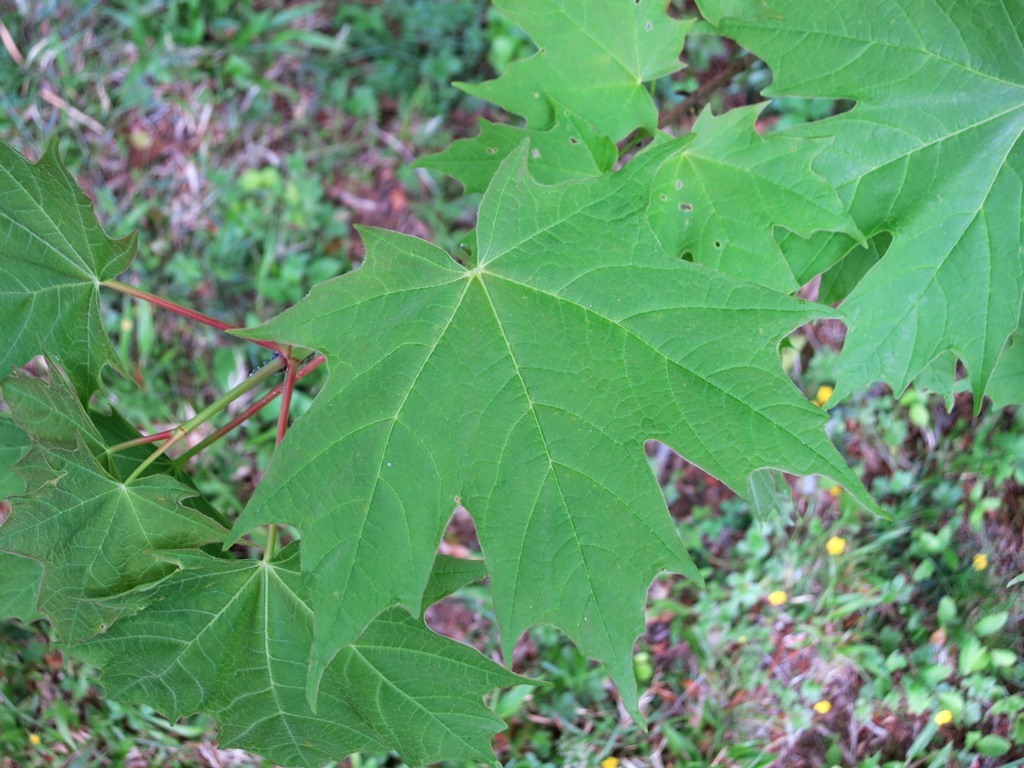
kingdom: Plantae
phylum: Tracheophyta
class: Magnoliopsida
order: Sapindales
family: Sapindaceae
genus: Acer
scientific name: Acer saccharum
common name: Sugar maple
